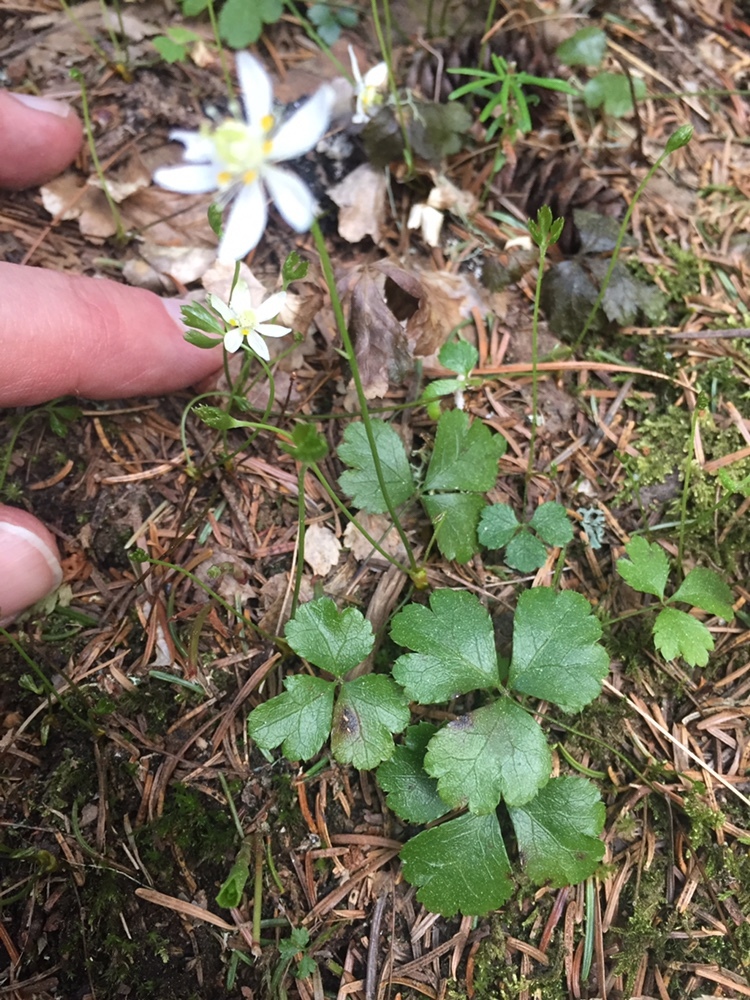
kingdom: Plantae
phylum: Tracheophyta
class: Magnoliopsida
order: Ranunculales
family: Ranunculaceae
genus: Coptis
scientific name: Coptis trifolia
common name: Canker-root
